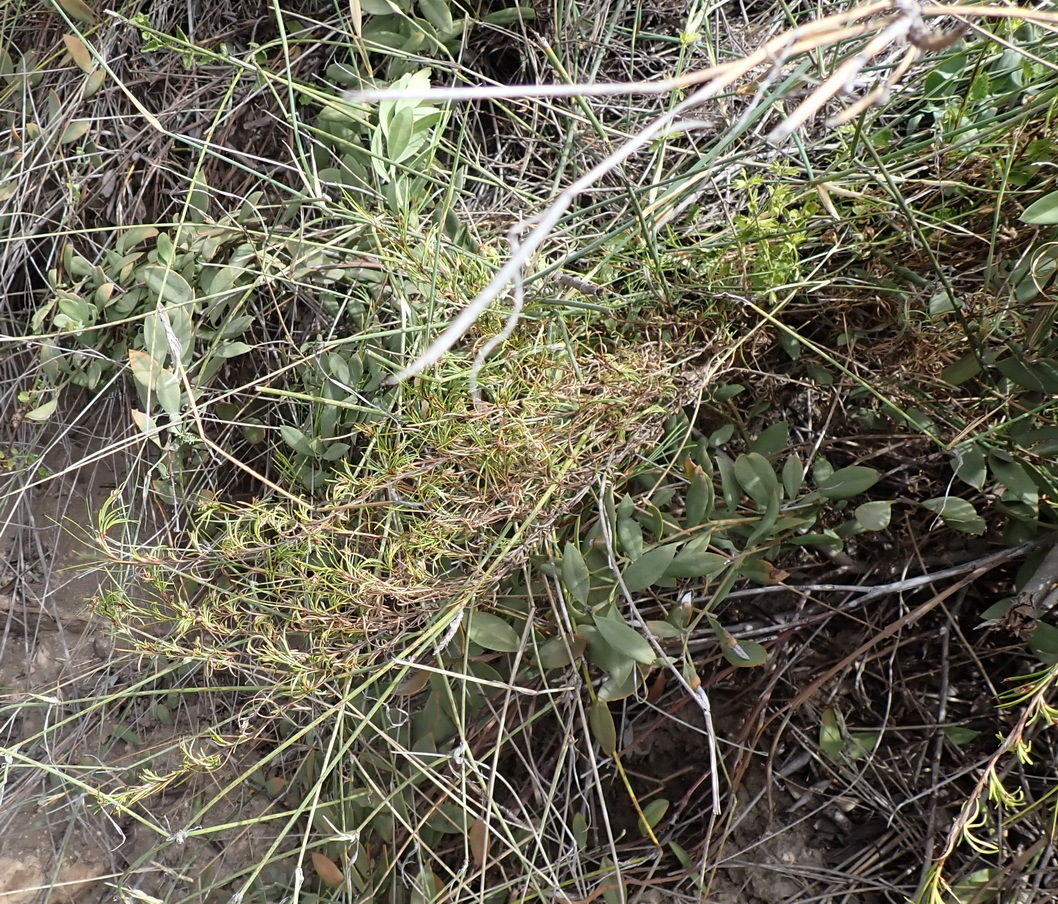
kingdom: Plantae
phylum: Tracheophyta
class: Liliopsida
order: Poales
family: Cyperaceae
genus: Ficinia
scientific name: Ficinia ramosissima
